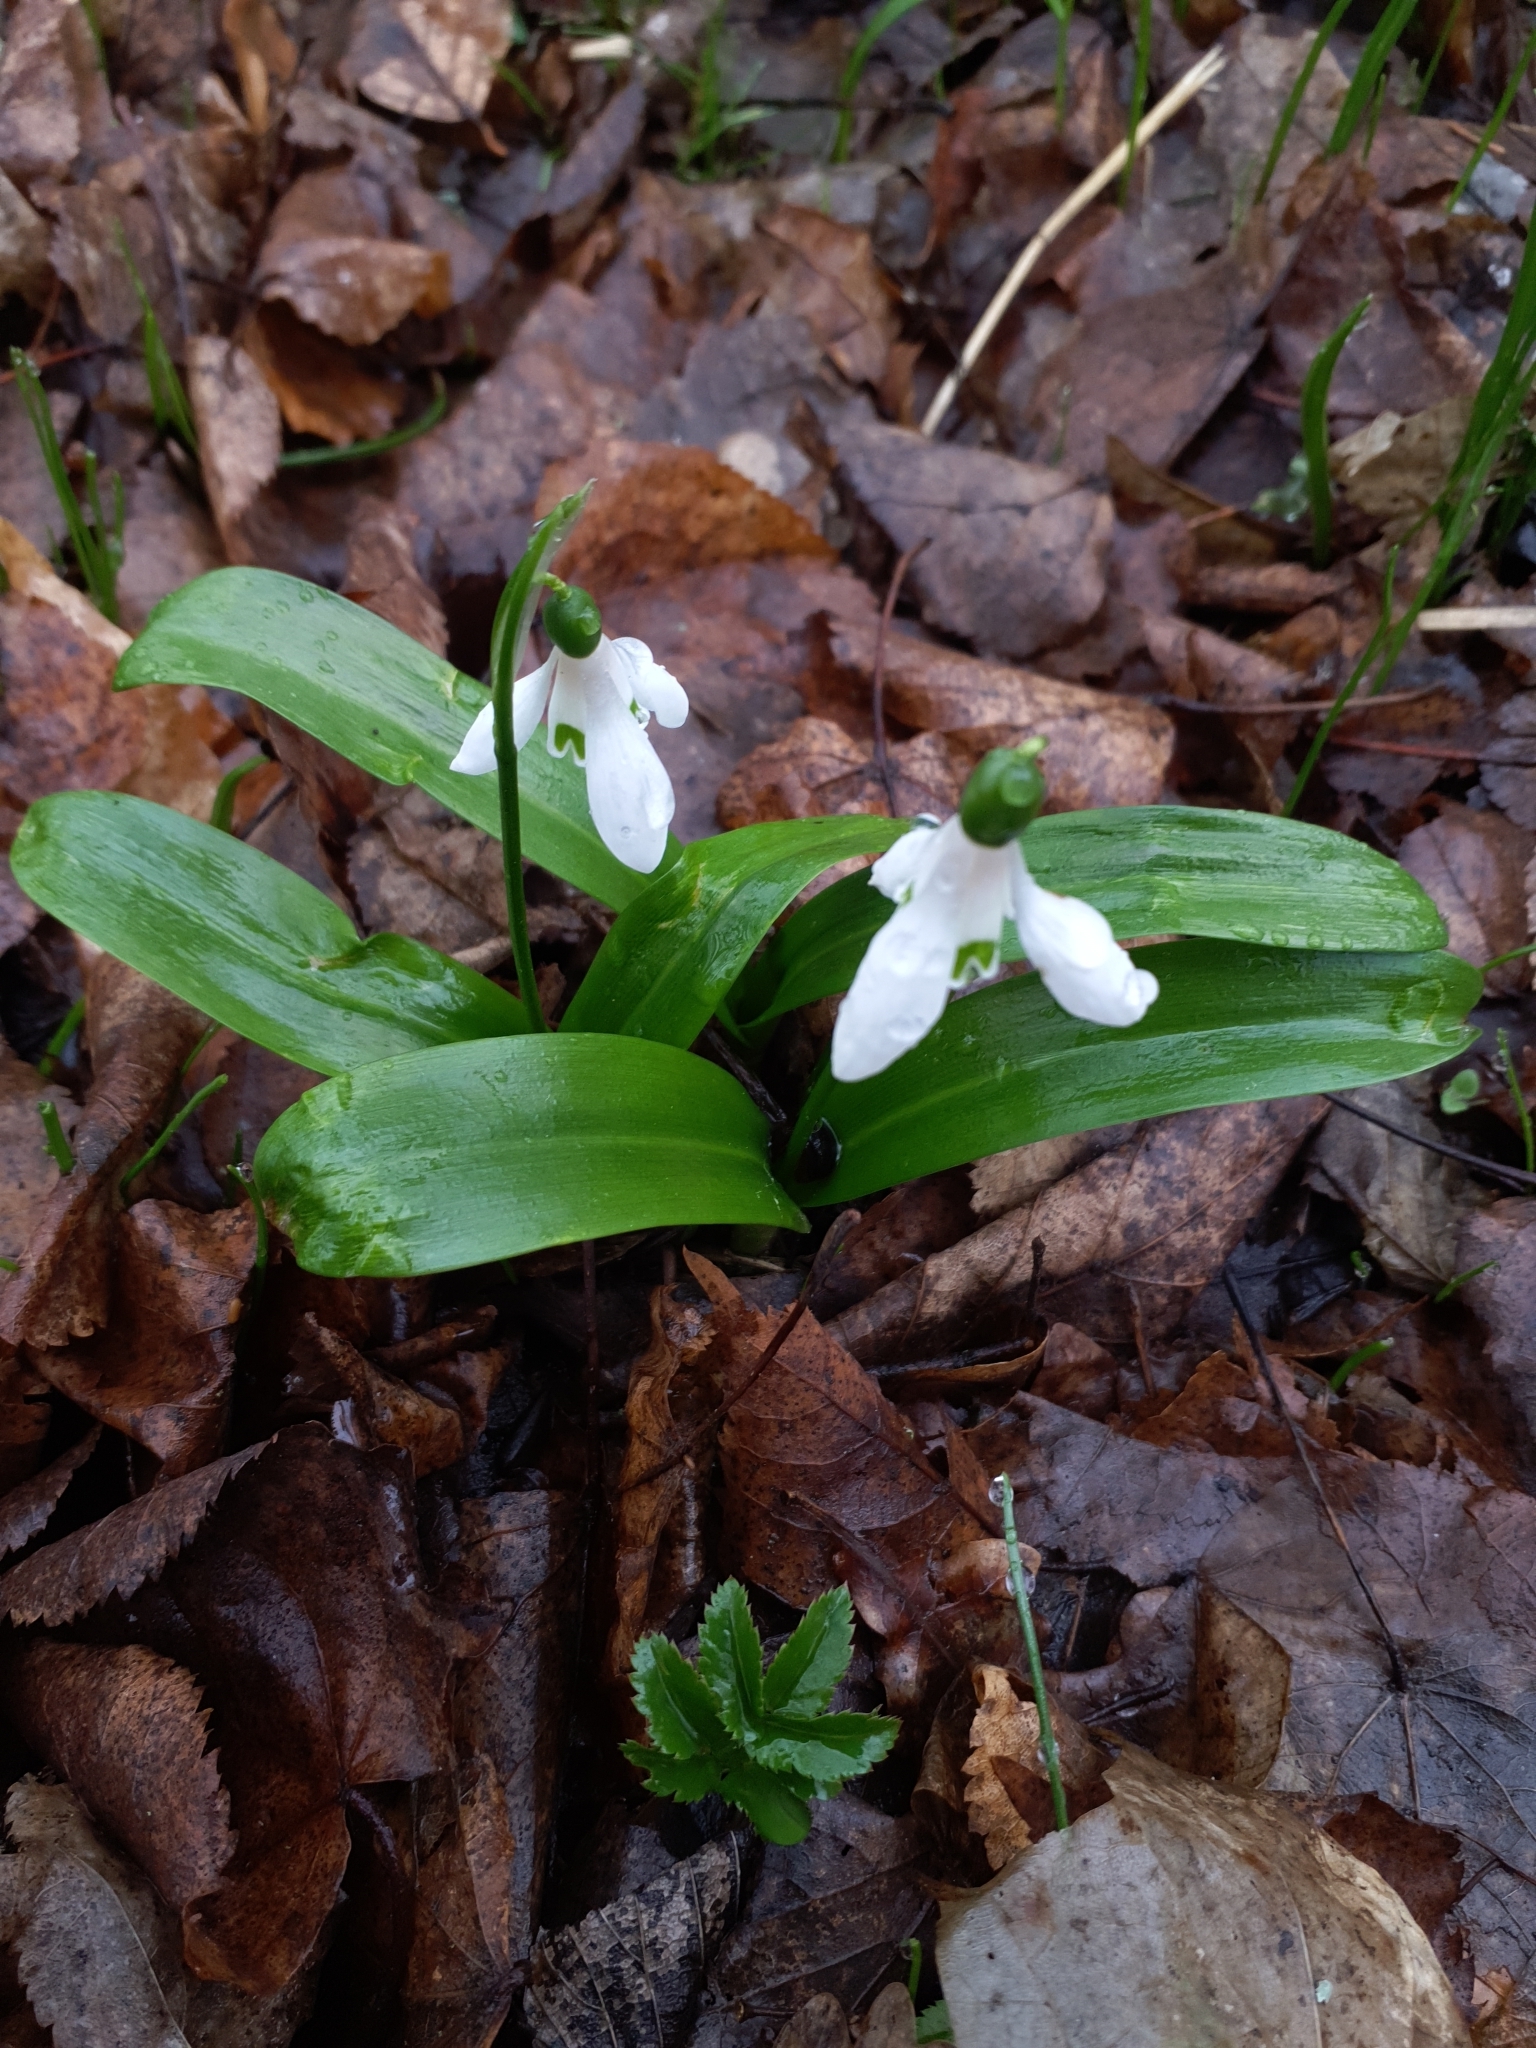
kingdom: Plantae
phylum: Tracheophyta
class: Liliopsida
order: Asparagales
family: Amaryllidaceae
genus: Galanthus
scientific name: Galanthus woronowii
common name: Green snowdrop
